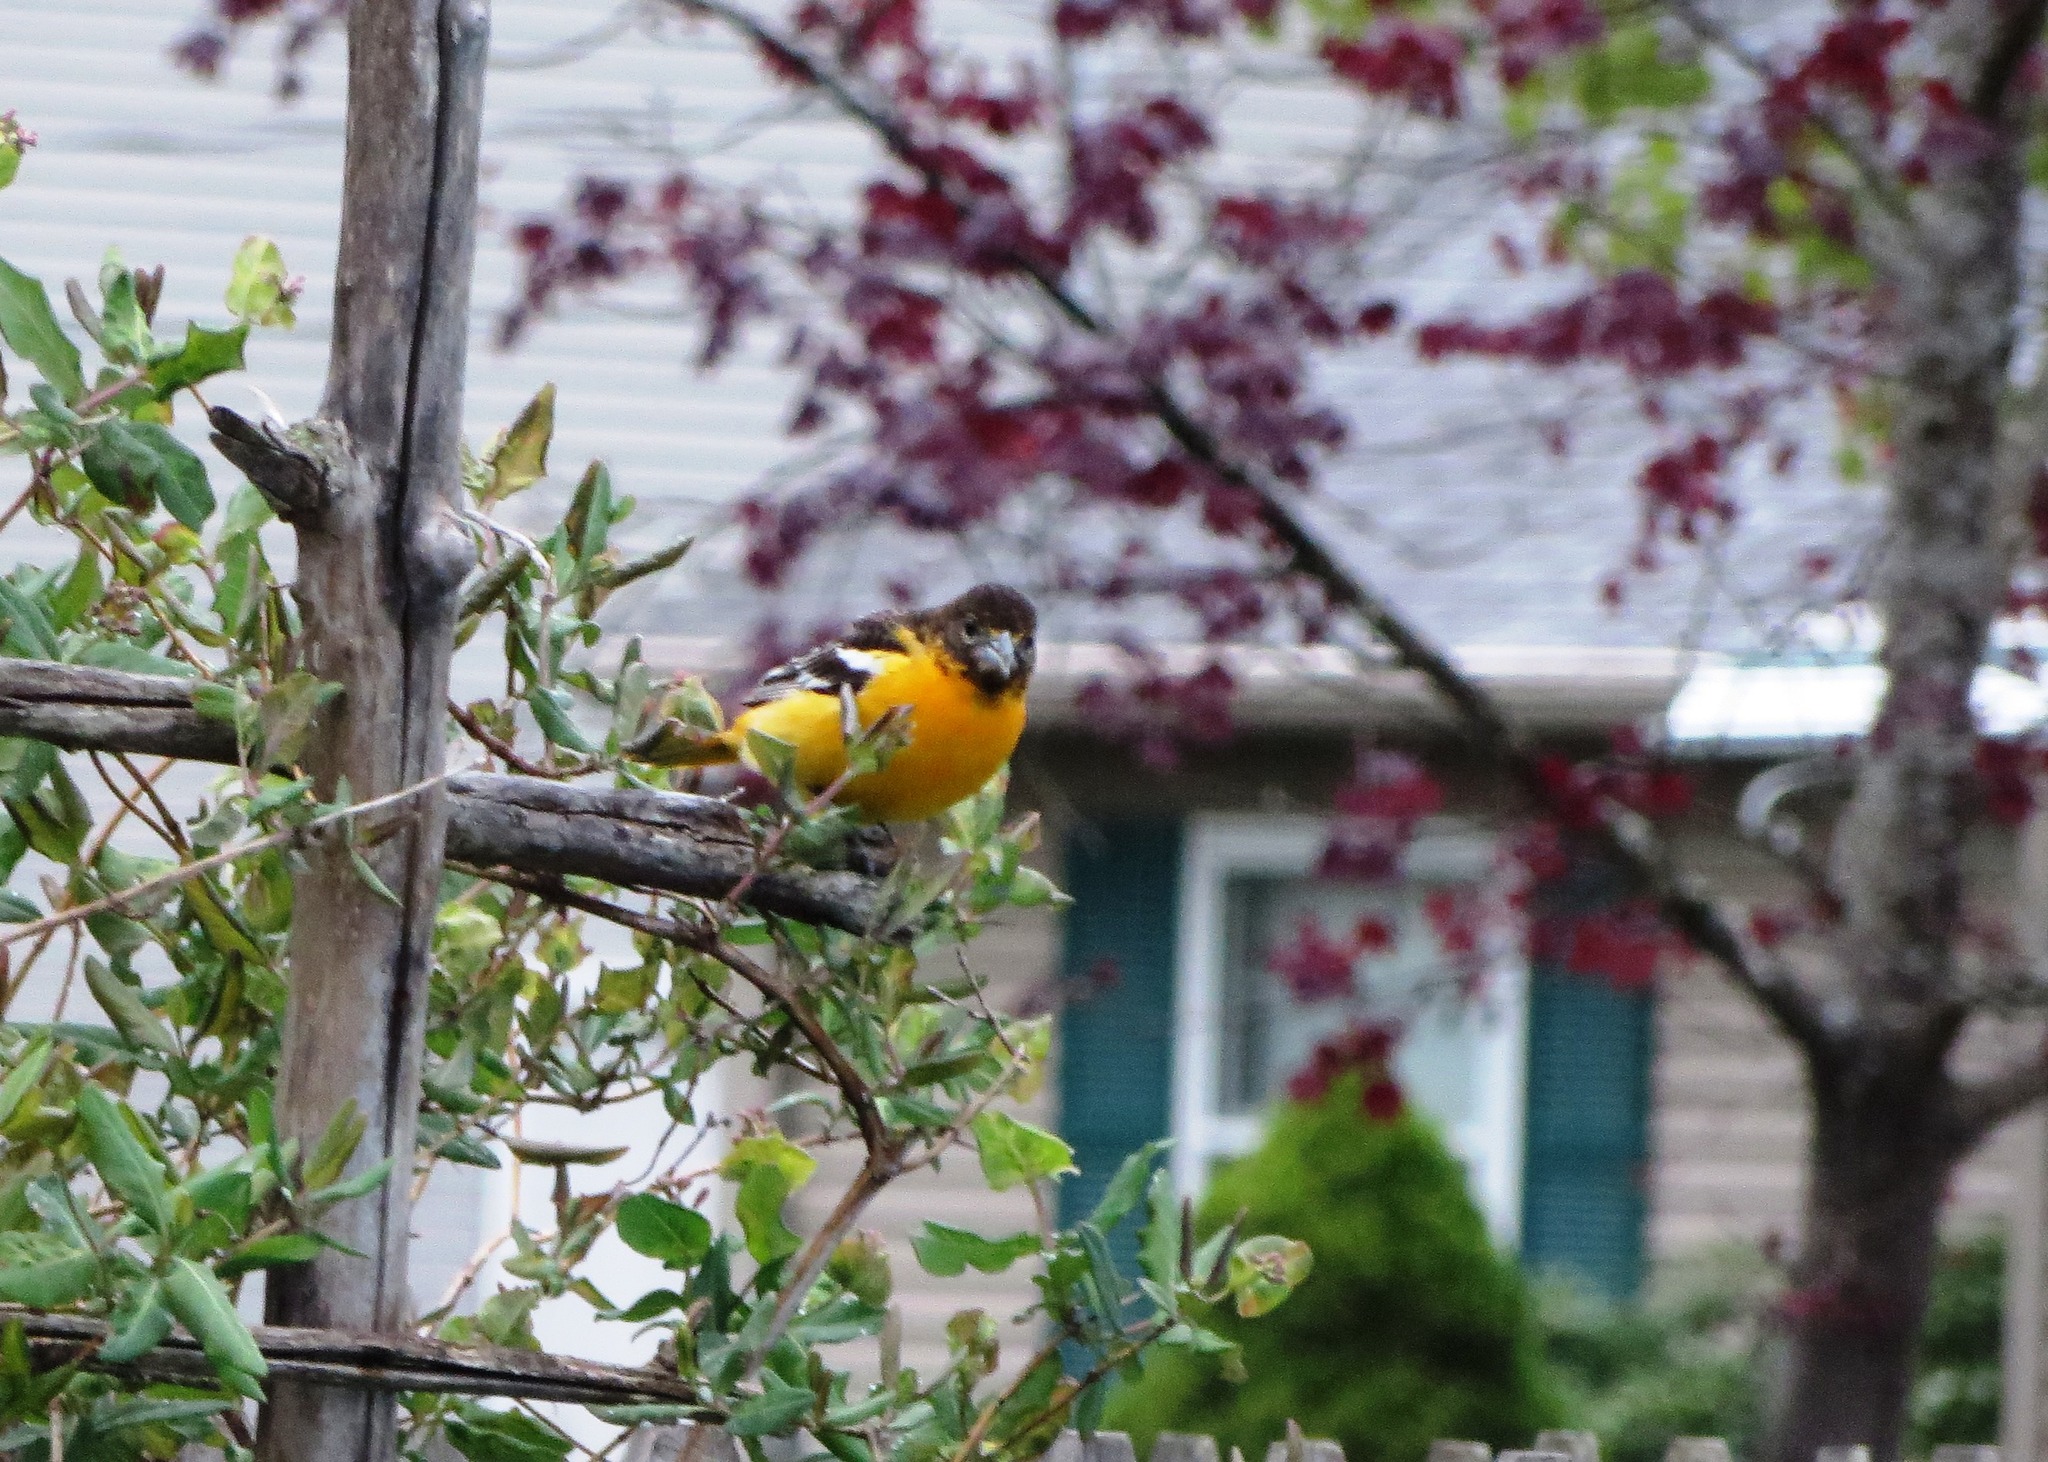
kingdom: Animalia
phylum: Chordata
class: Aves
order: Passeriformes
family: Icteridae
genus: Icterus
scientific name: Icterus galbula
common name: Baltimore oriole
